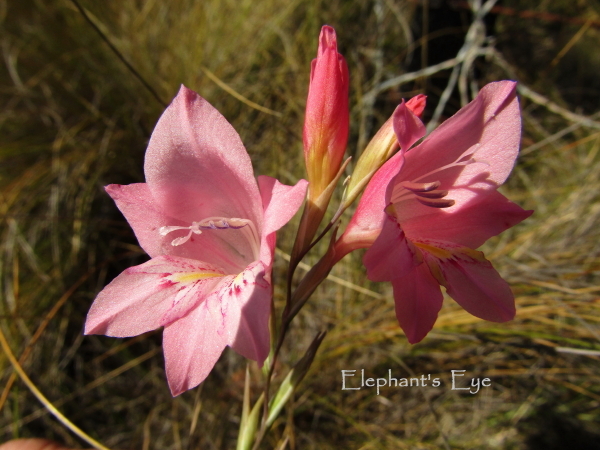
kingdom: Plantae
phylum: Tracheophyta
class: Liliopsida
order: Asparagales
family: Iridaceae
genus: Gladiolus
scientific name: Gladiolus brevifolius
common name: March pypie
